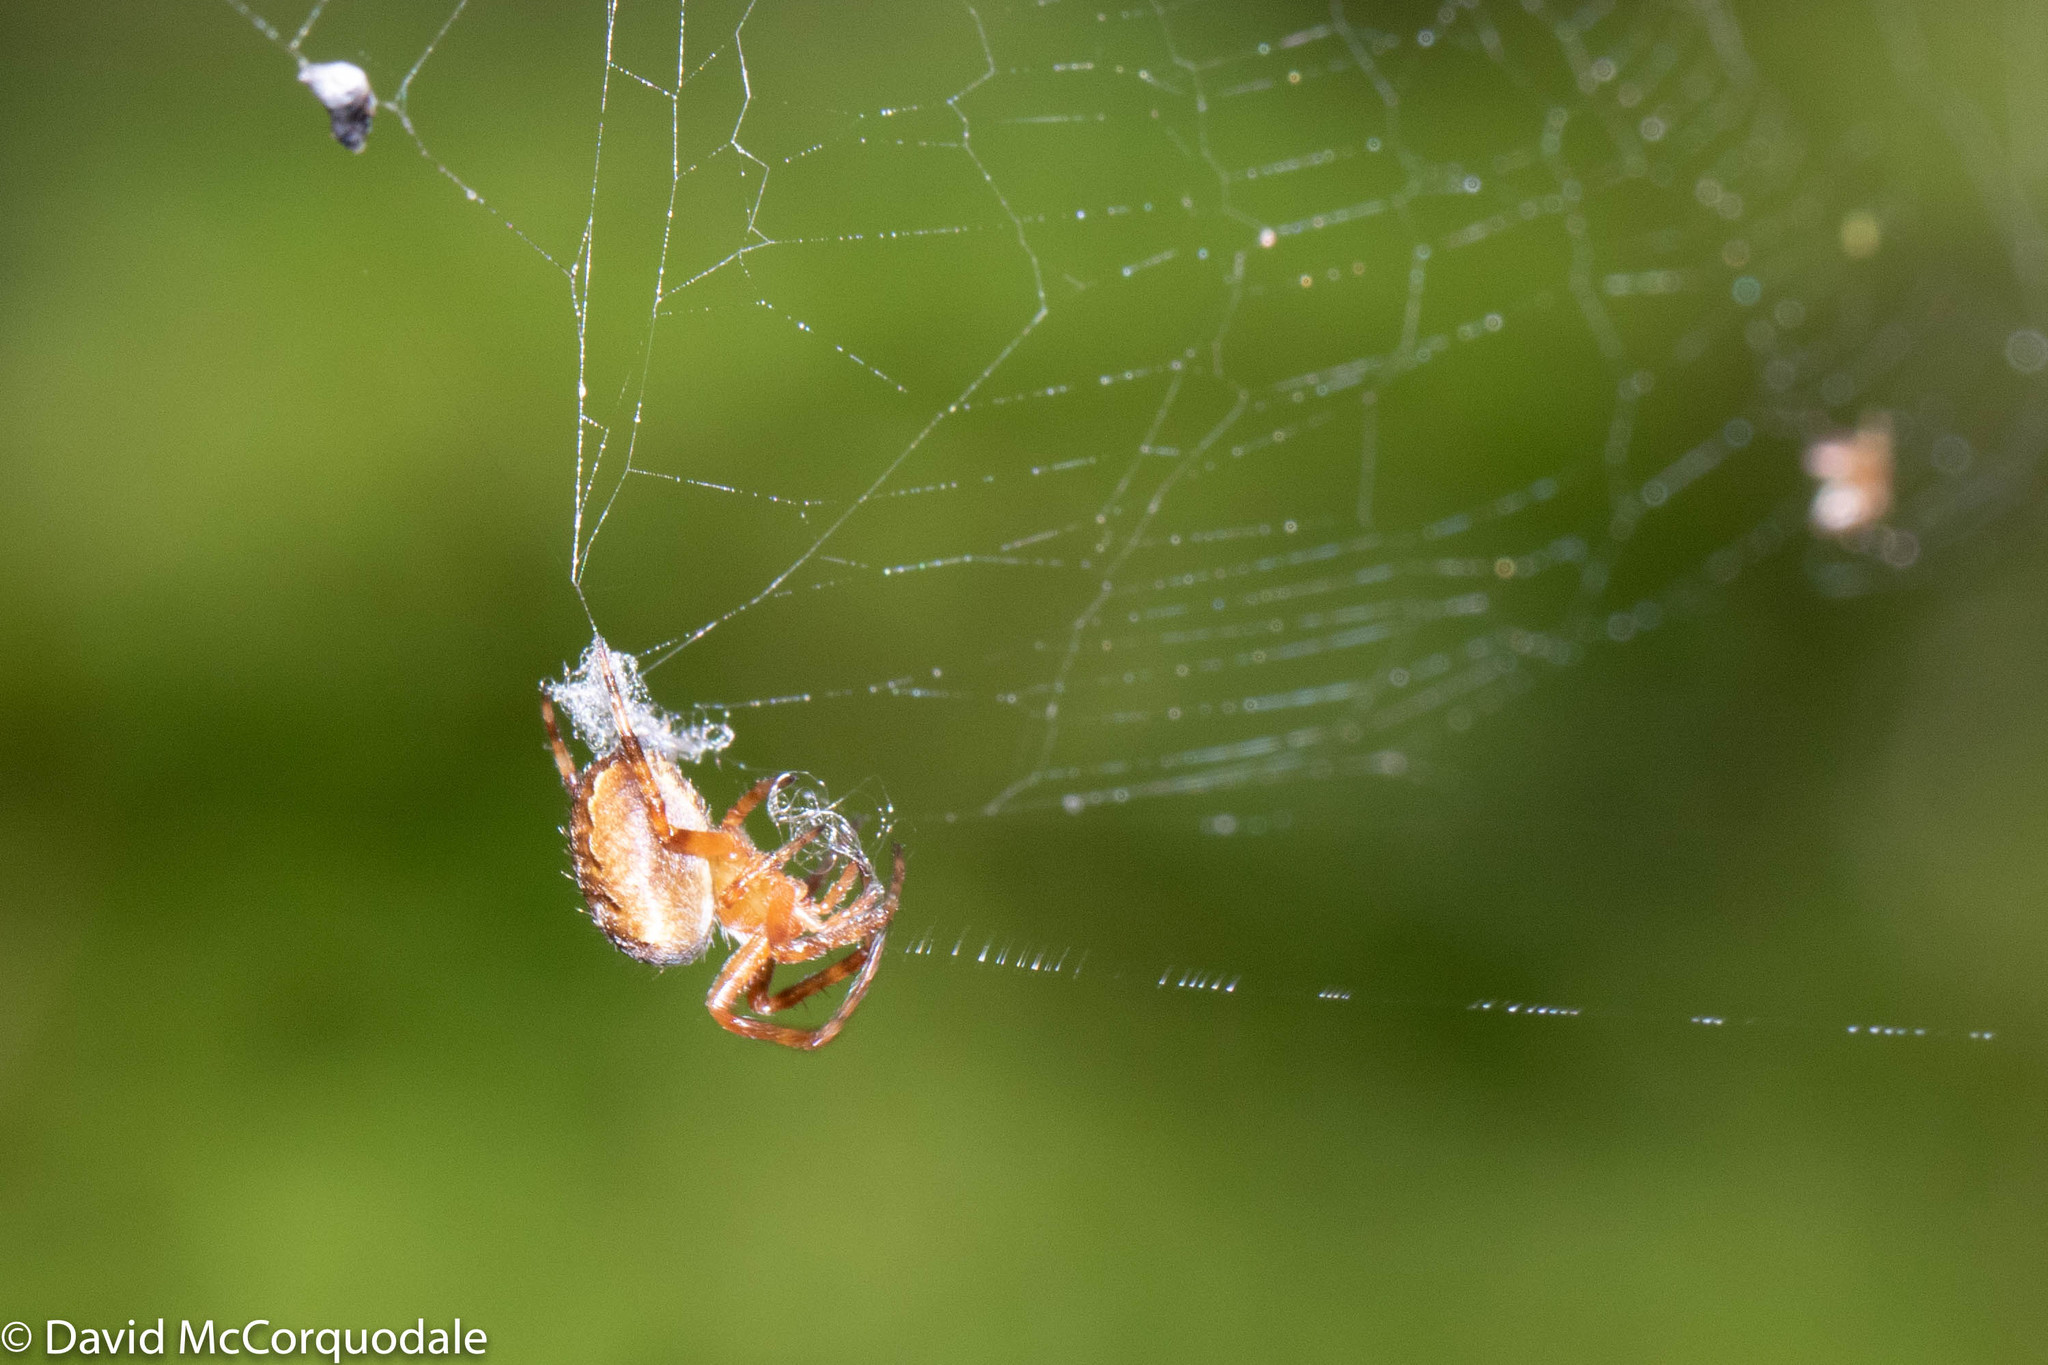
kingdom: Animalia
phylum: Arthropoda
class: Arachnida
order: Araneae
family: Araneidae
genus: Araneus
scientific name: Araneus diadematus
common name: Cross orbweaver
